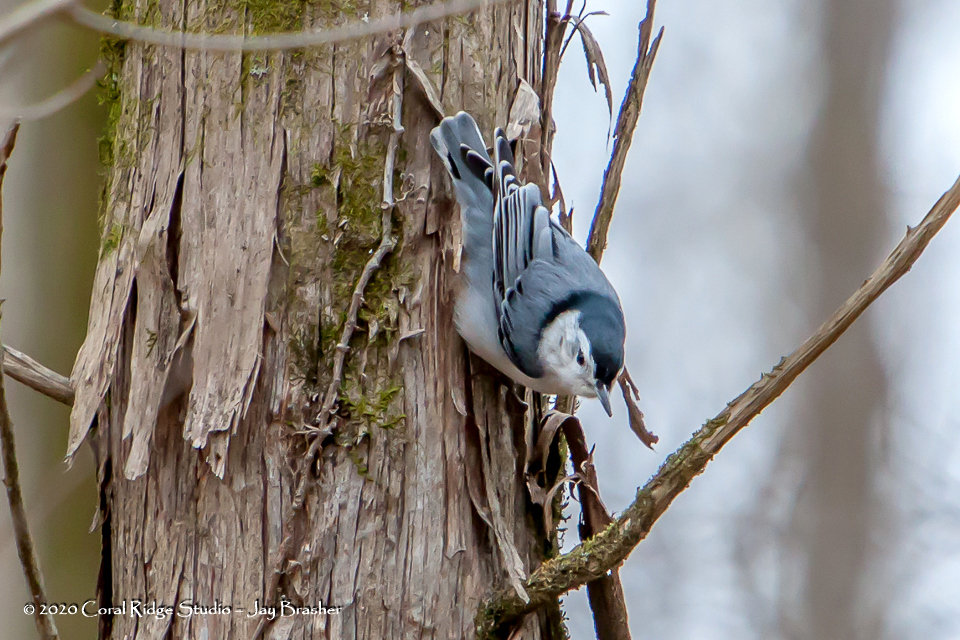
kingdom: Animalia
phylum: Chordata
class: Aves
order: Passeriformes
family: Sittidae
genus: Sitta
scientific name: Sitta carolinensis
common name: White-breasted nuthatch
